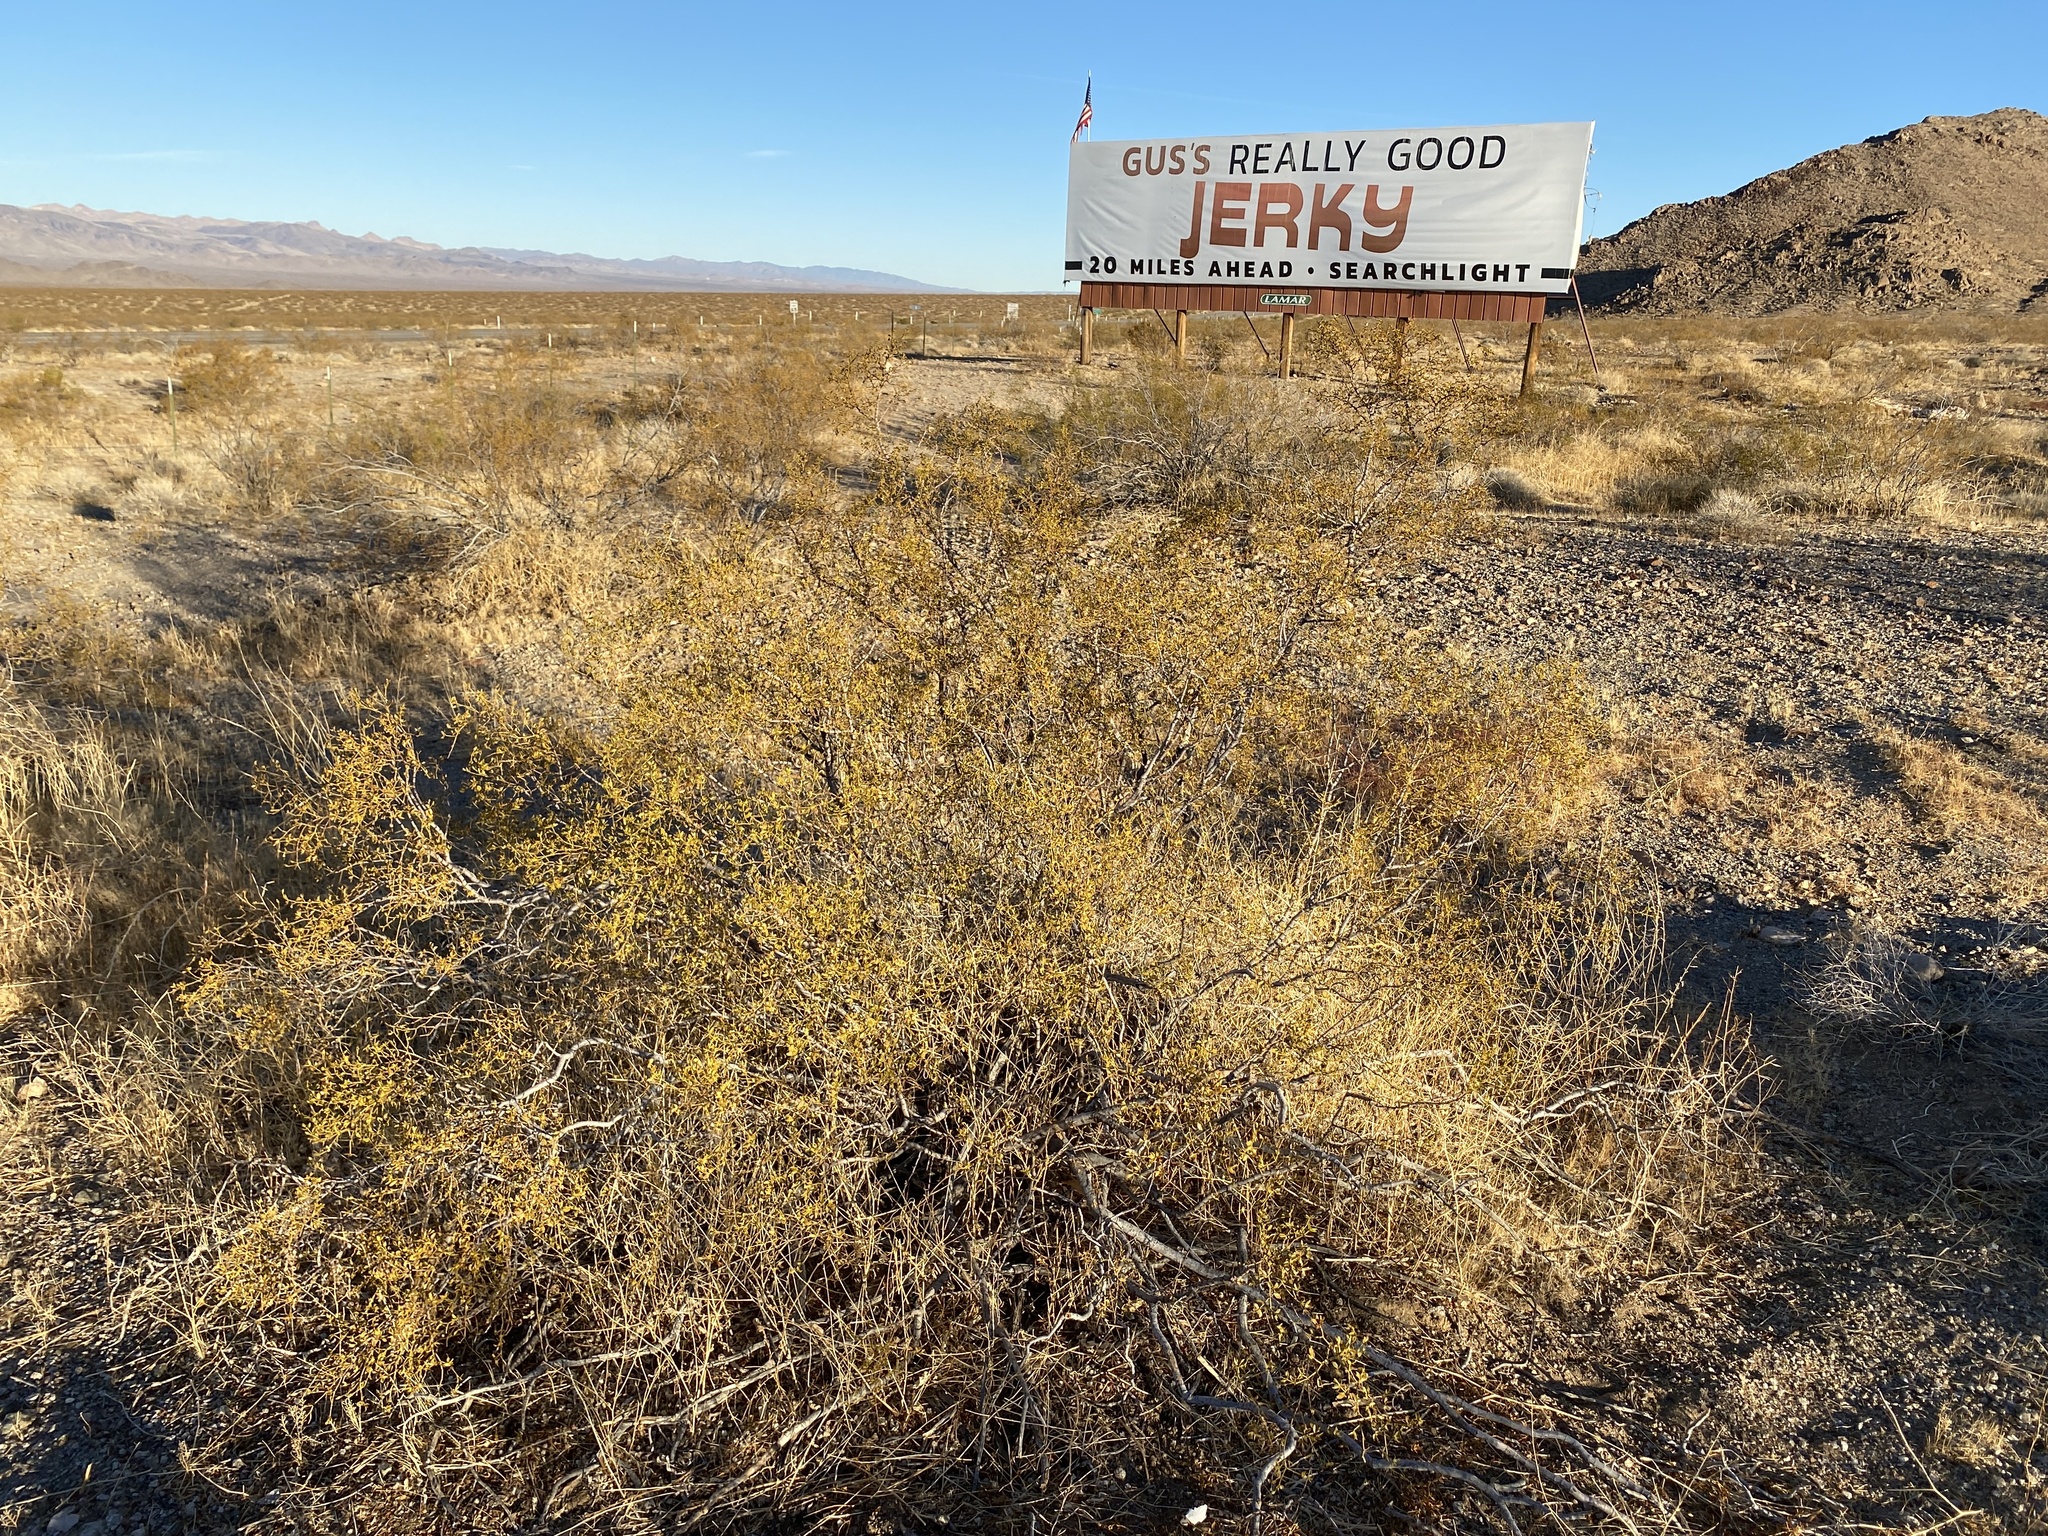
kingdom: Plantae
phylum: Tracheophyta
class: Magnoliopsida
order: Zygophyllales
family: Zygophyllaceae
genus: Larrea
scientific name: Larrea tridentata
